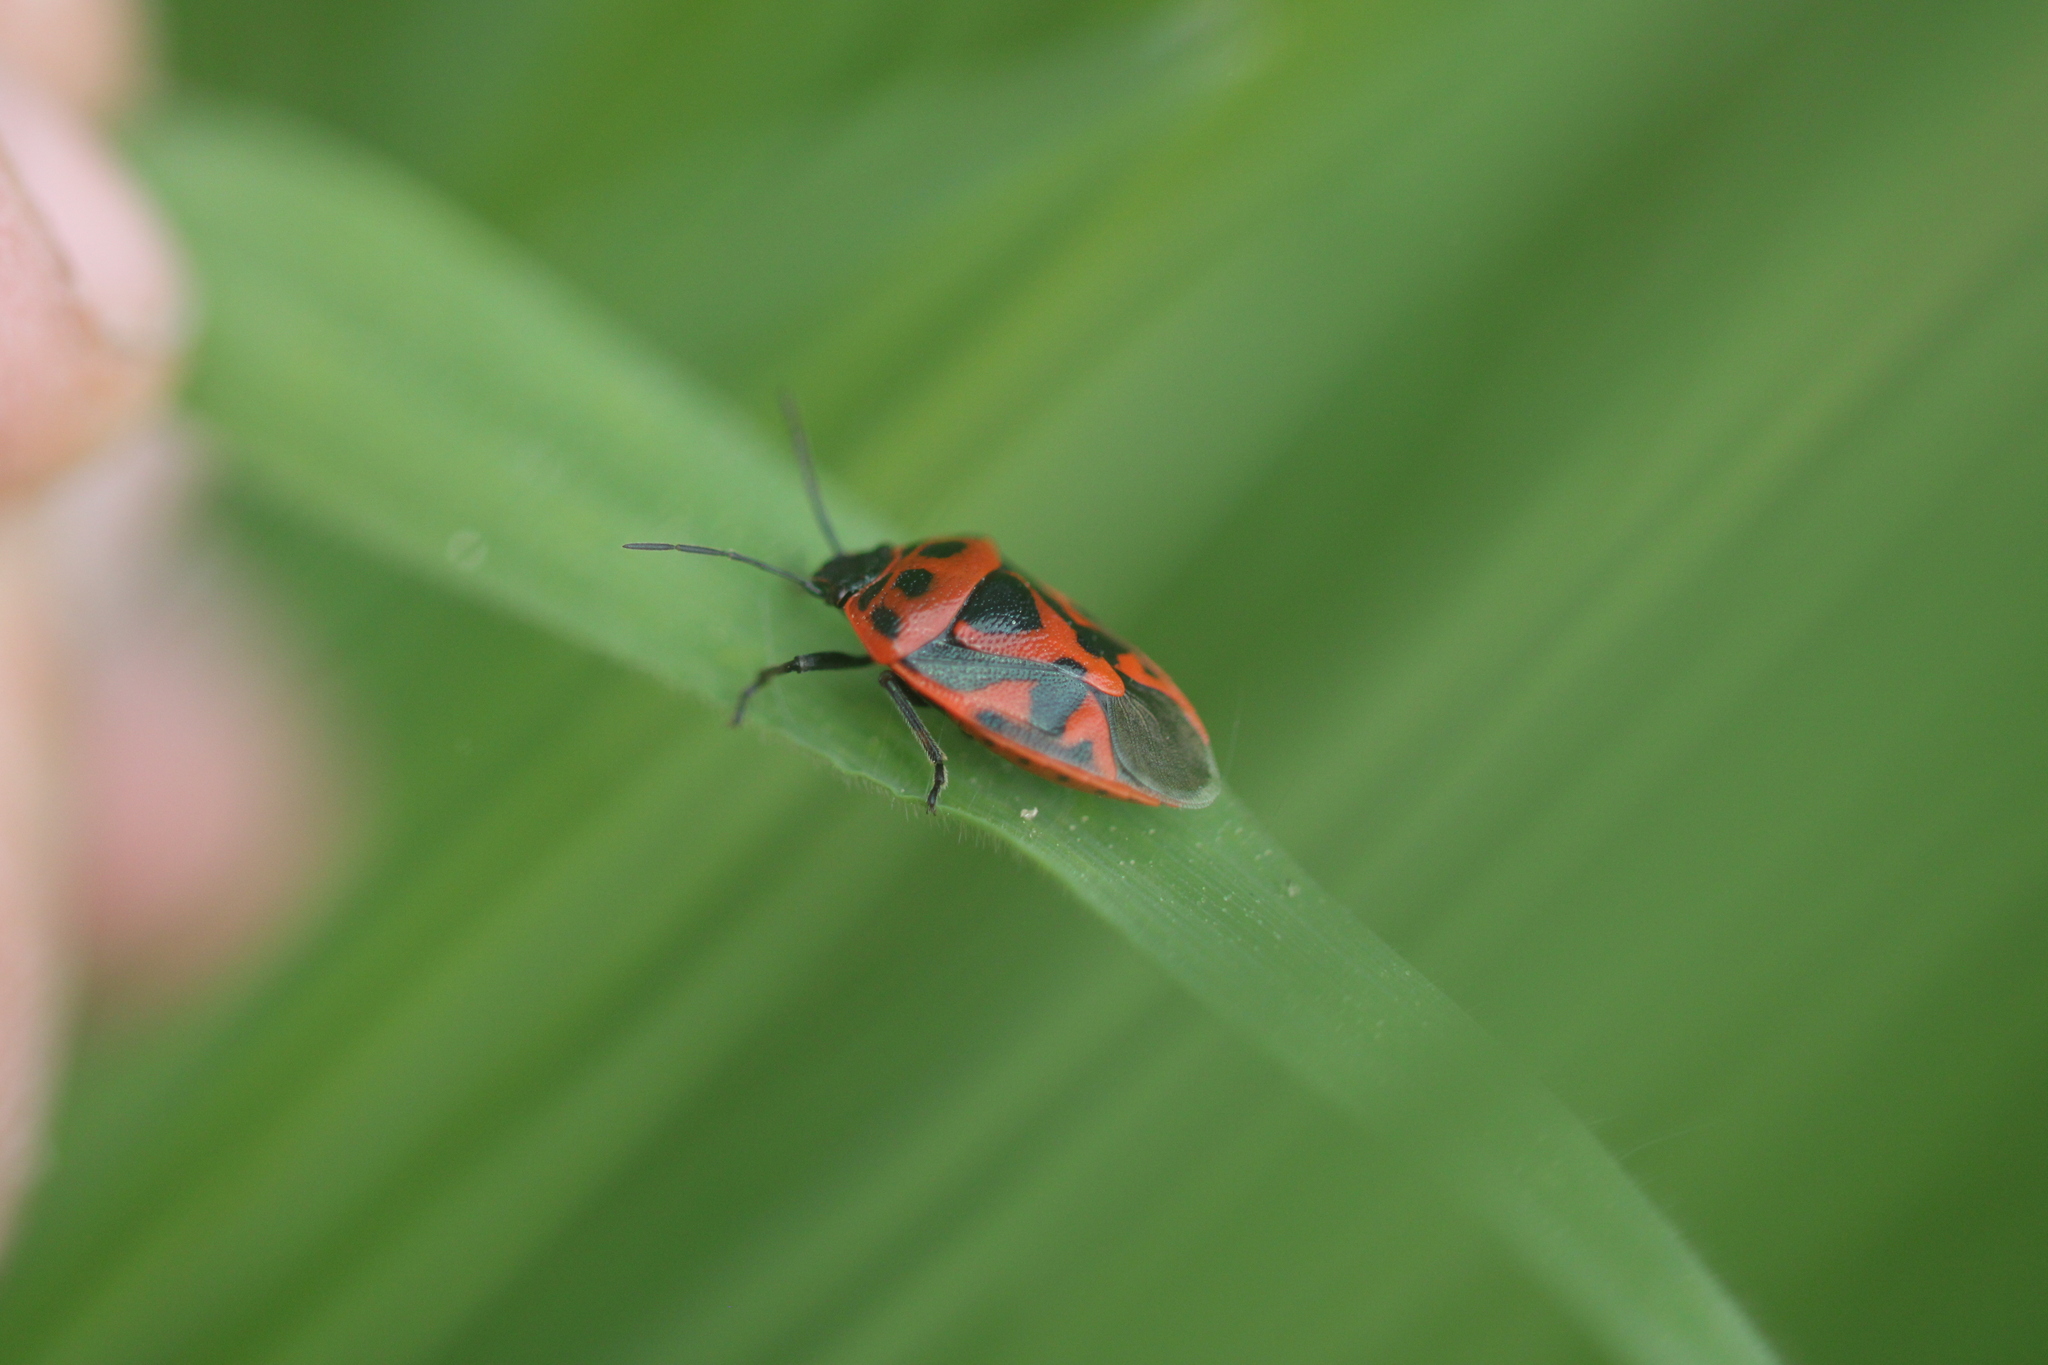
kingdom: Animalia
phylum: Arthropoda
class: Insecta
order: Hemiptera
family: Pentatomidae
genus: Eurydema
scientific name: Eurydema ornata
